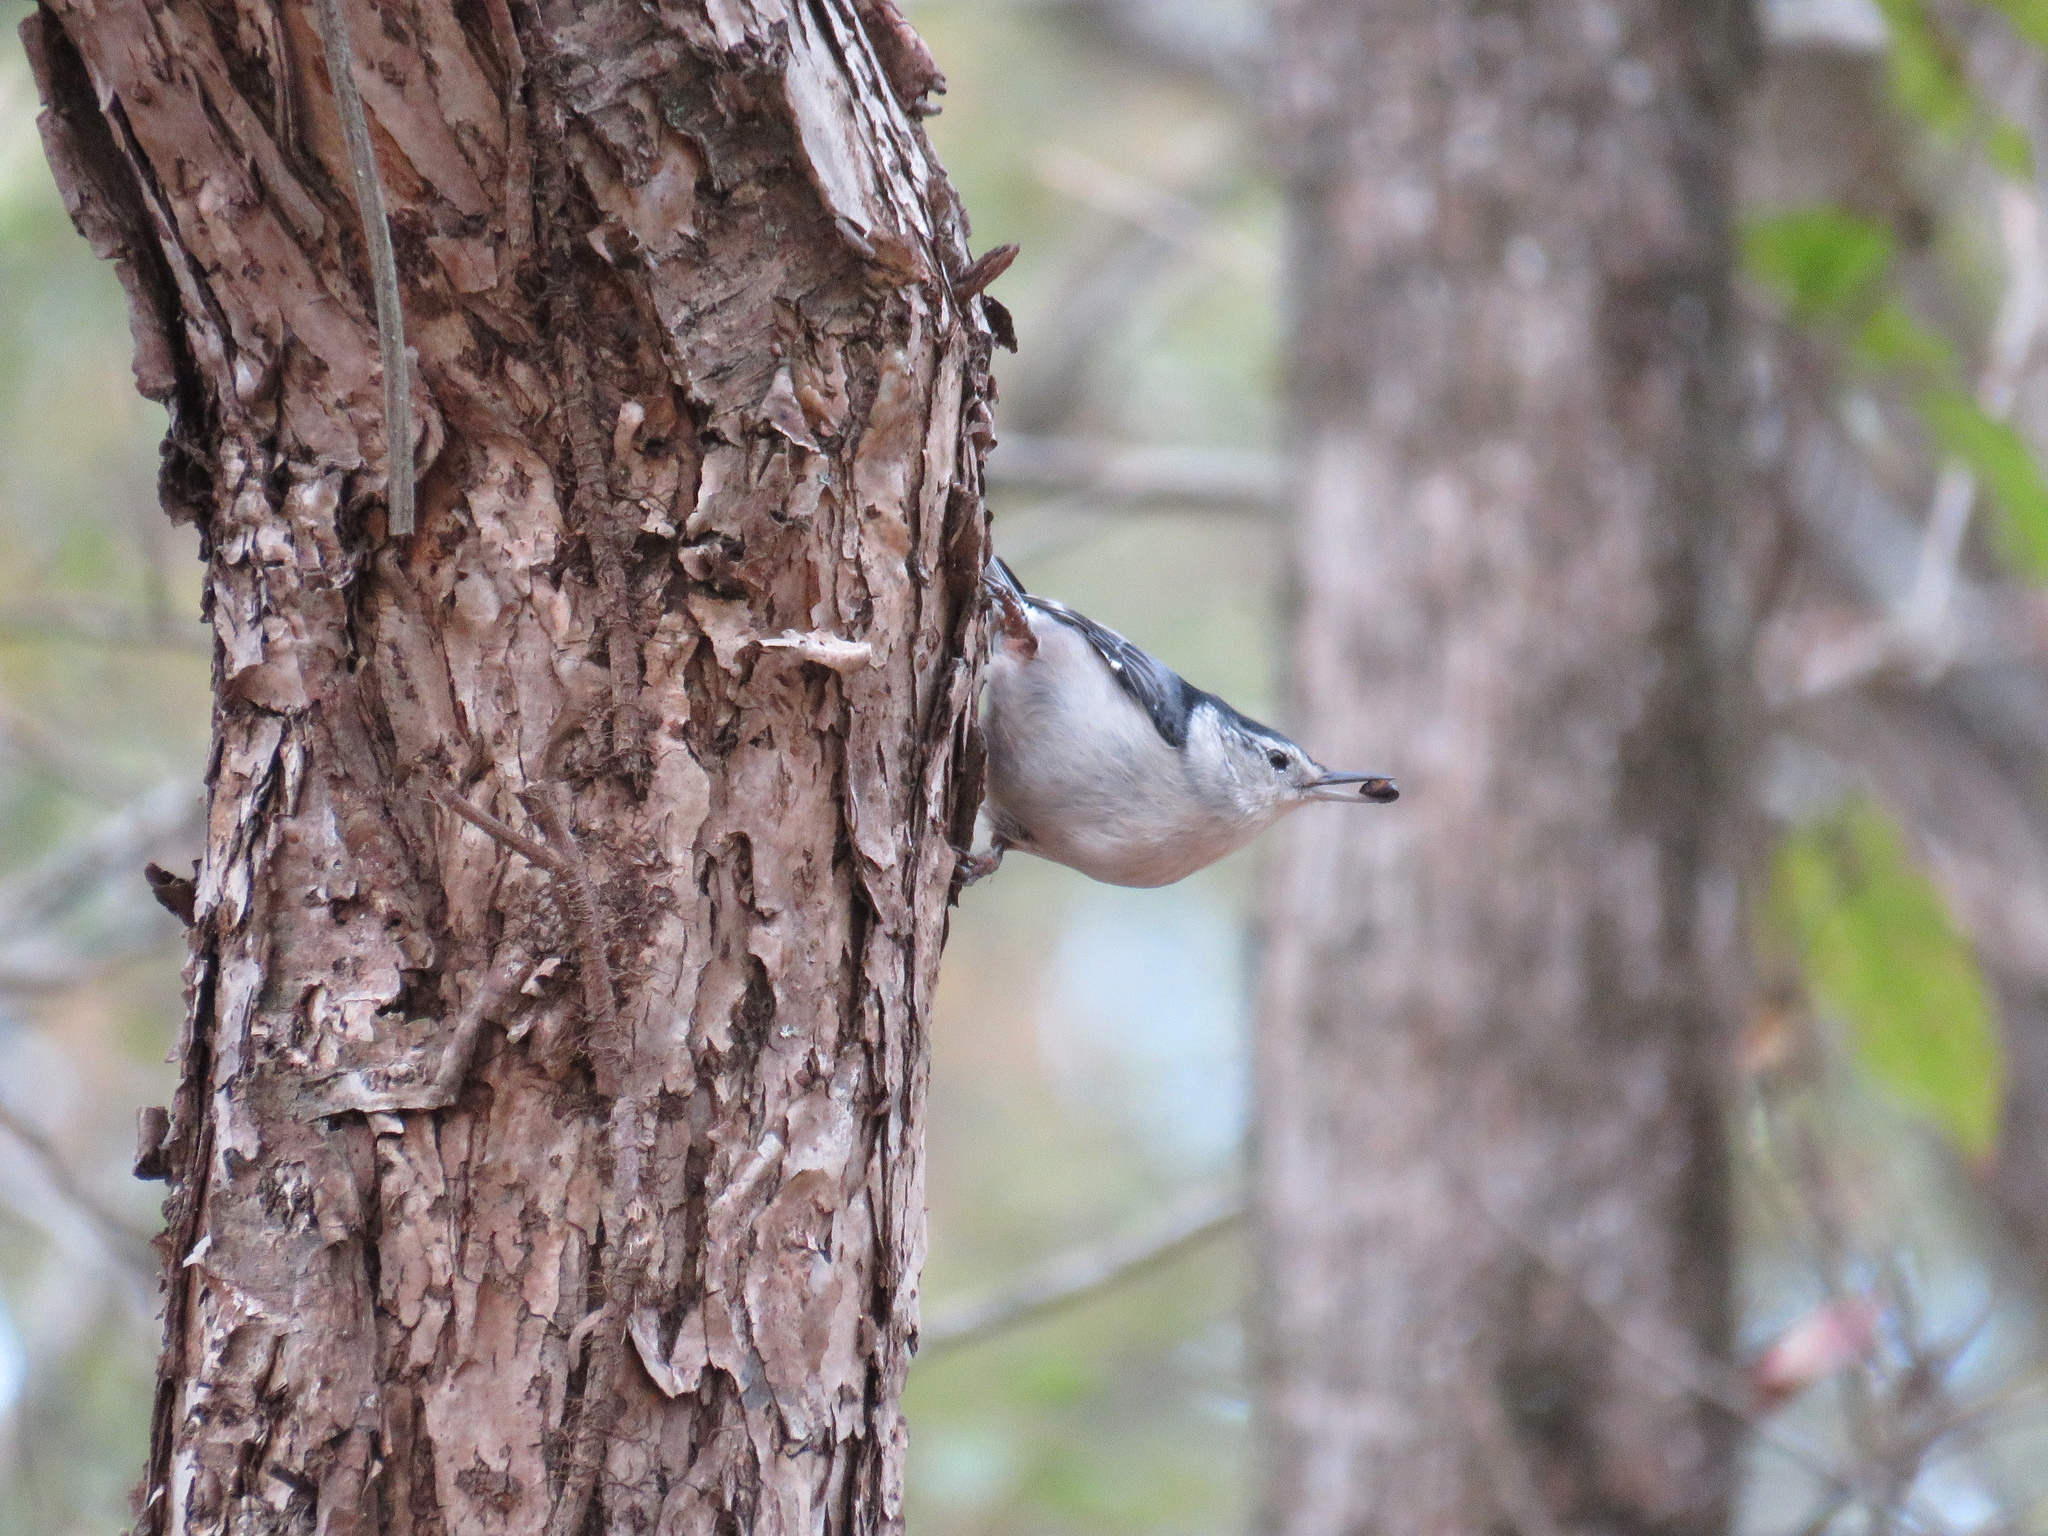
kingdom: Animalia
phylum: Chordata
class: Aves
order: Passeriformes
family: Sittidae
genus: Sitta
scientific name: Sitta carolinensis
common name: White-breasted nuthatch
